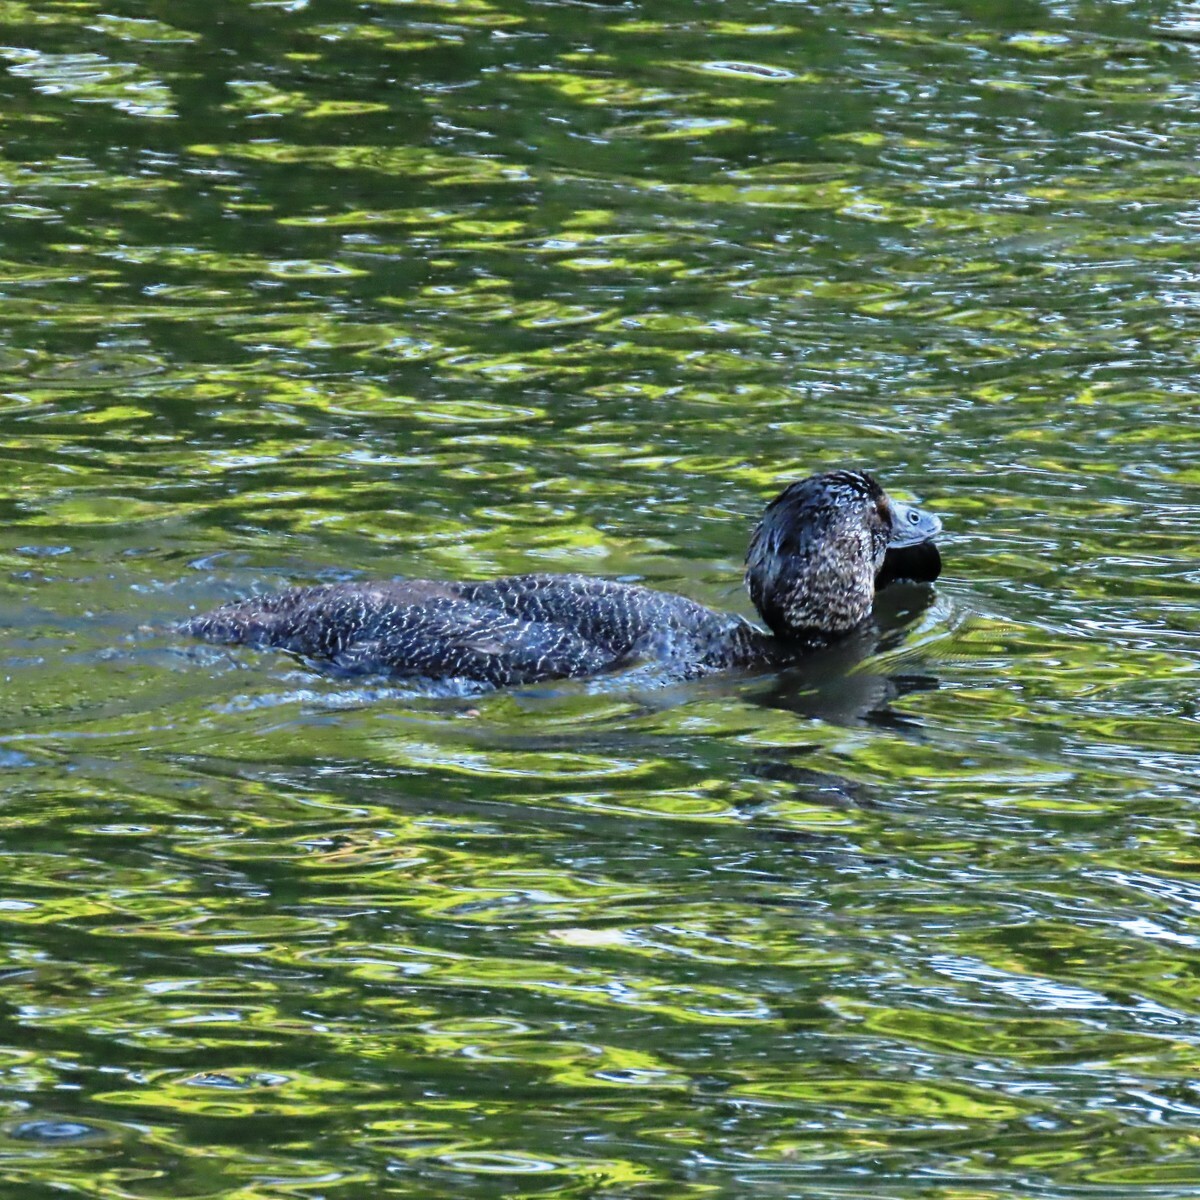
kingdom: Animalia
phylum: Chordata
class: Aves
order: Anseriformes
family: Anatidae
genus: Biziura
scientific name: Biziura lobata
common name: Musk duck
